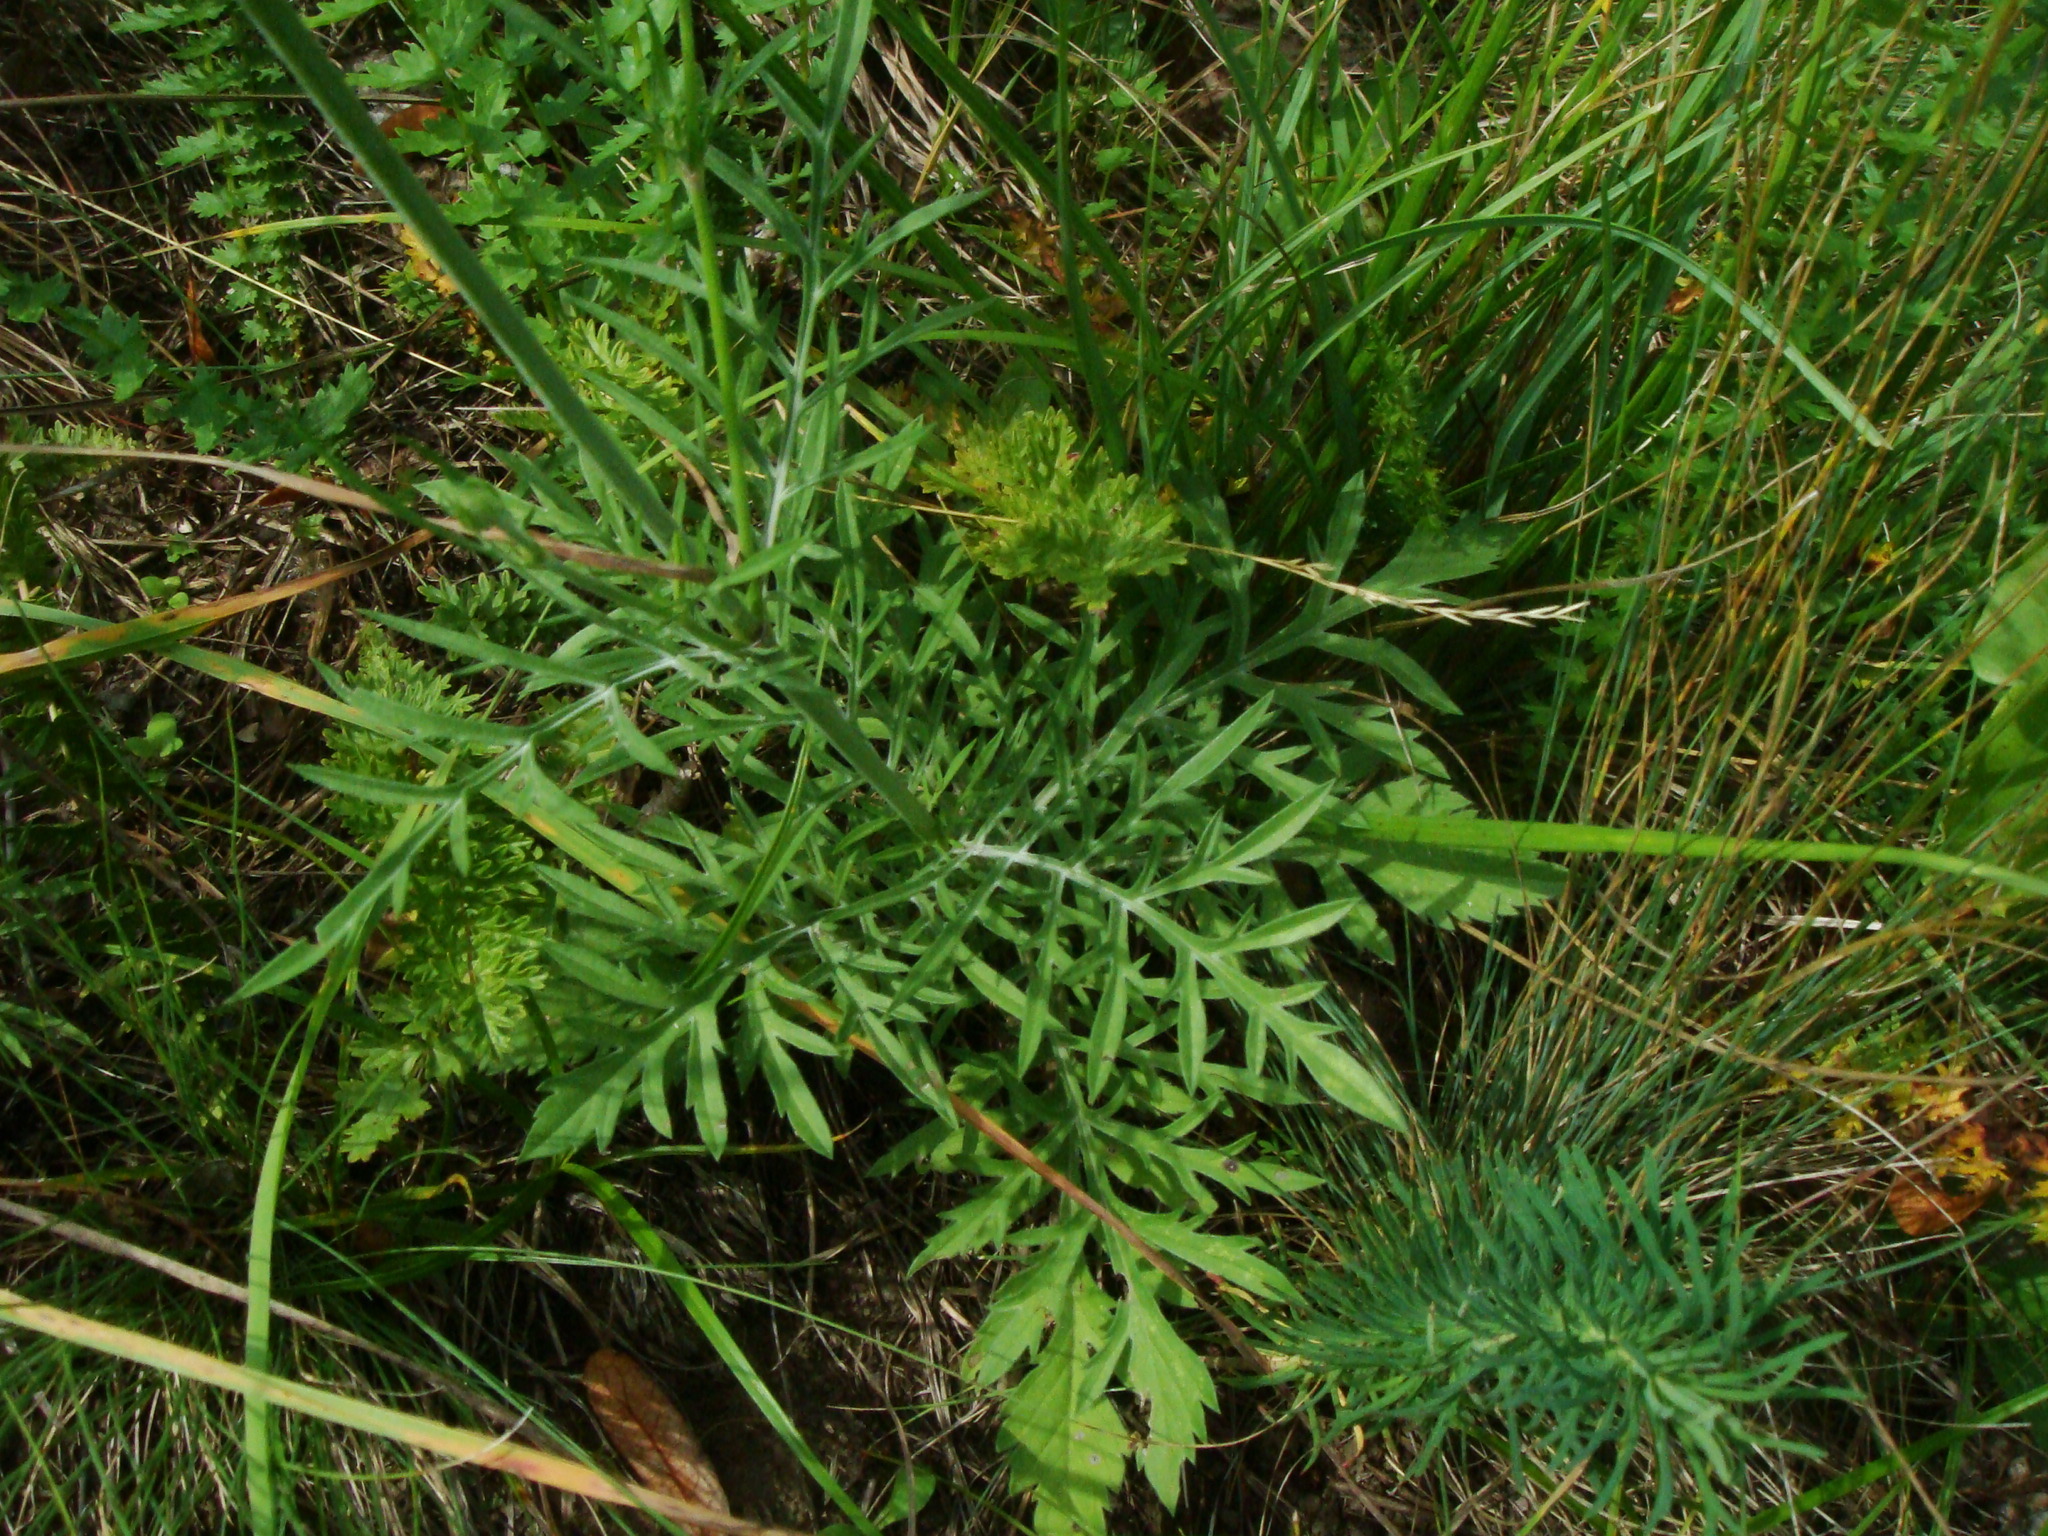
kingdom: Plantae
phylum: Tracheophyta
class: Magnoliopsida
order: Dipsacales
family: Caprifoliaceae
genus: Scabiosa
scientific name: Scabiosa ochroleuca
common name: Cream pincushions
